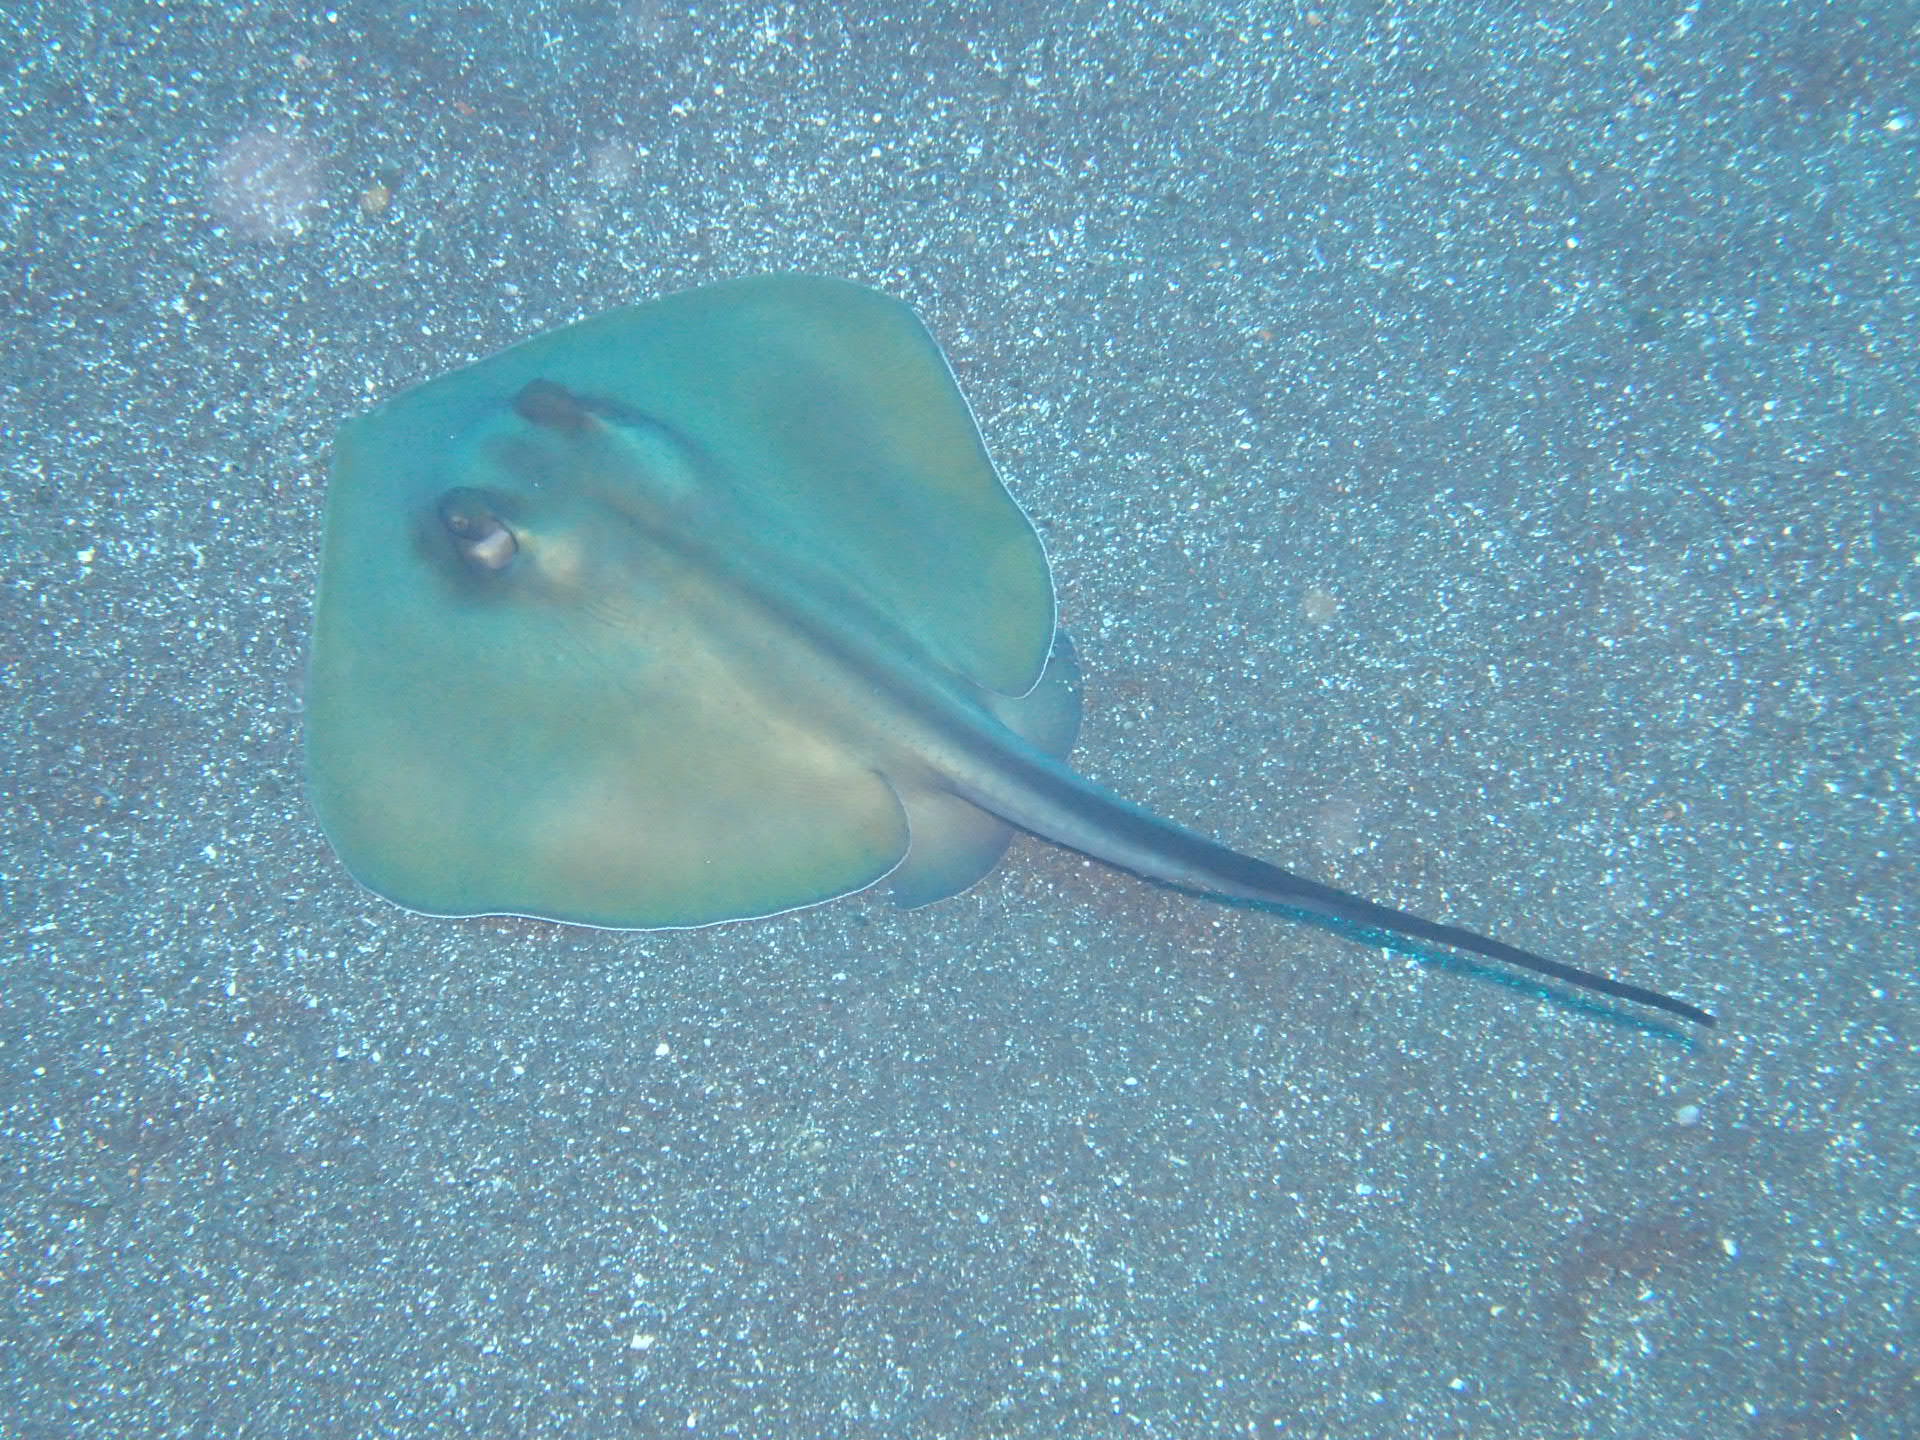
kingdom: Animalia
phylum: Chordata
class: Elasmobranchii
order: Myliobatiformes
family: Dasyatidae
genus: Dasyatis
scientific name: Dasyatis pastinaca
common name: Common stingray
